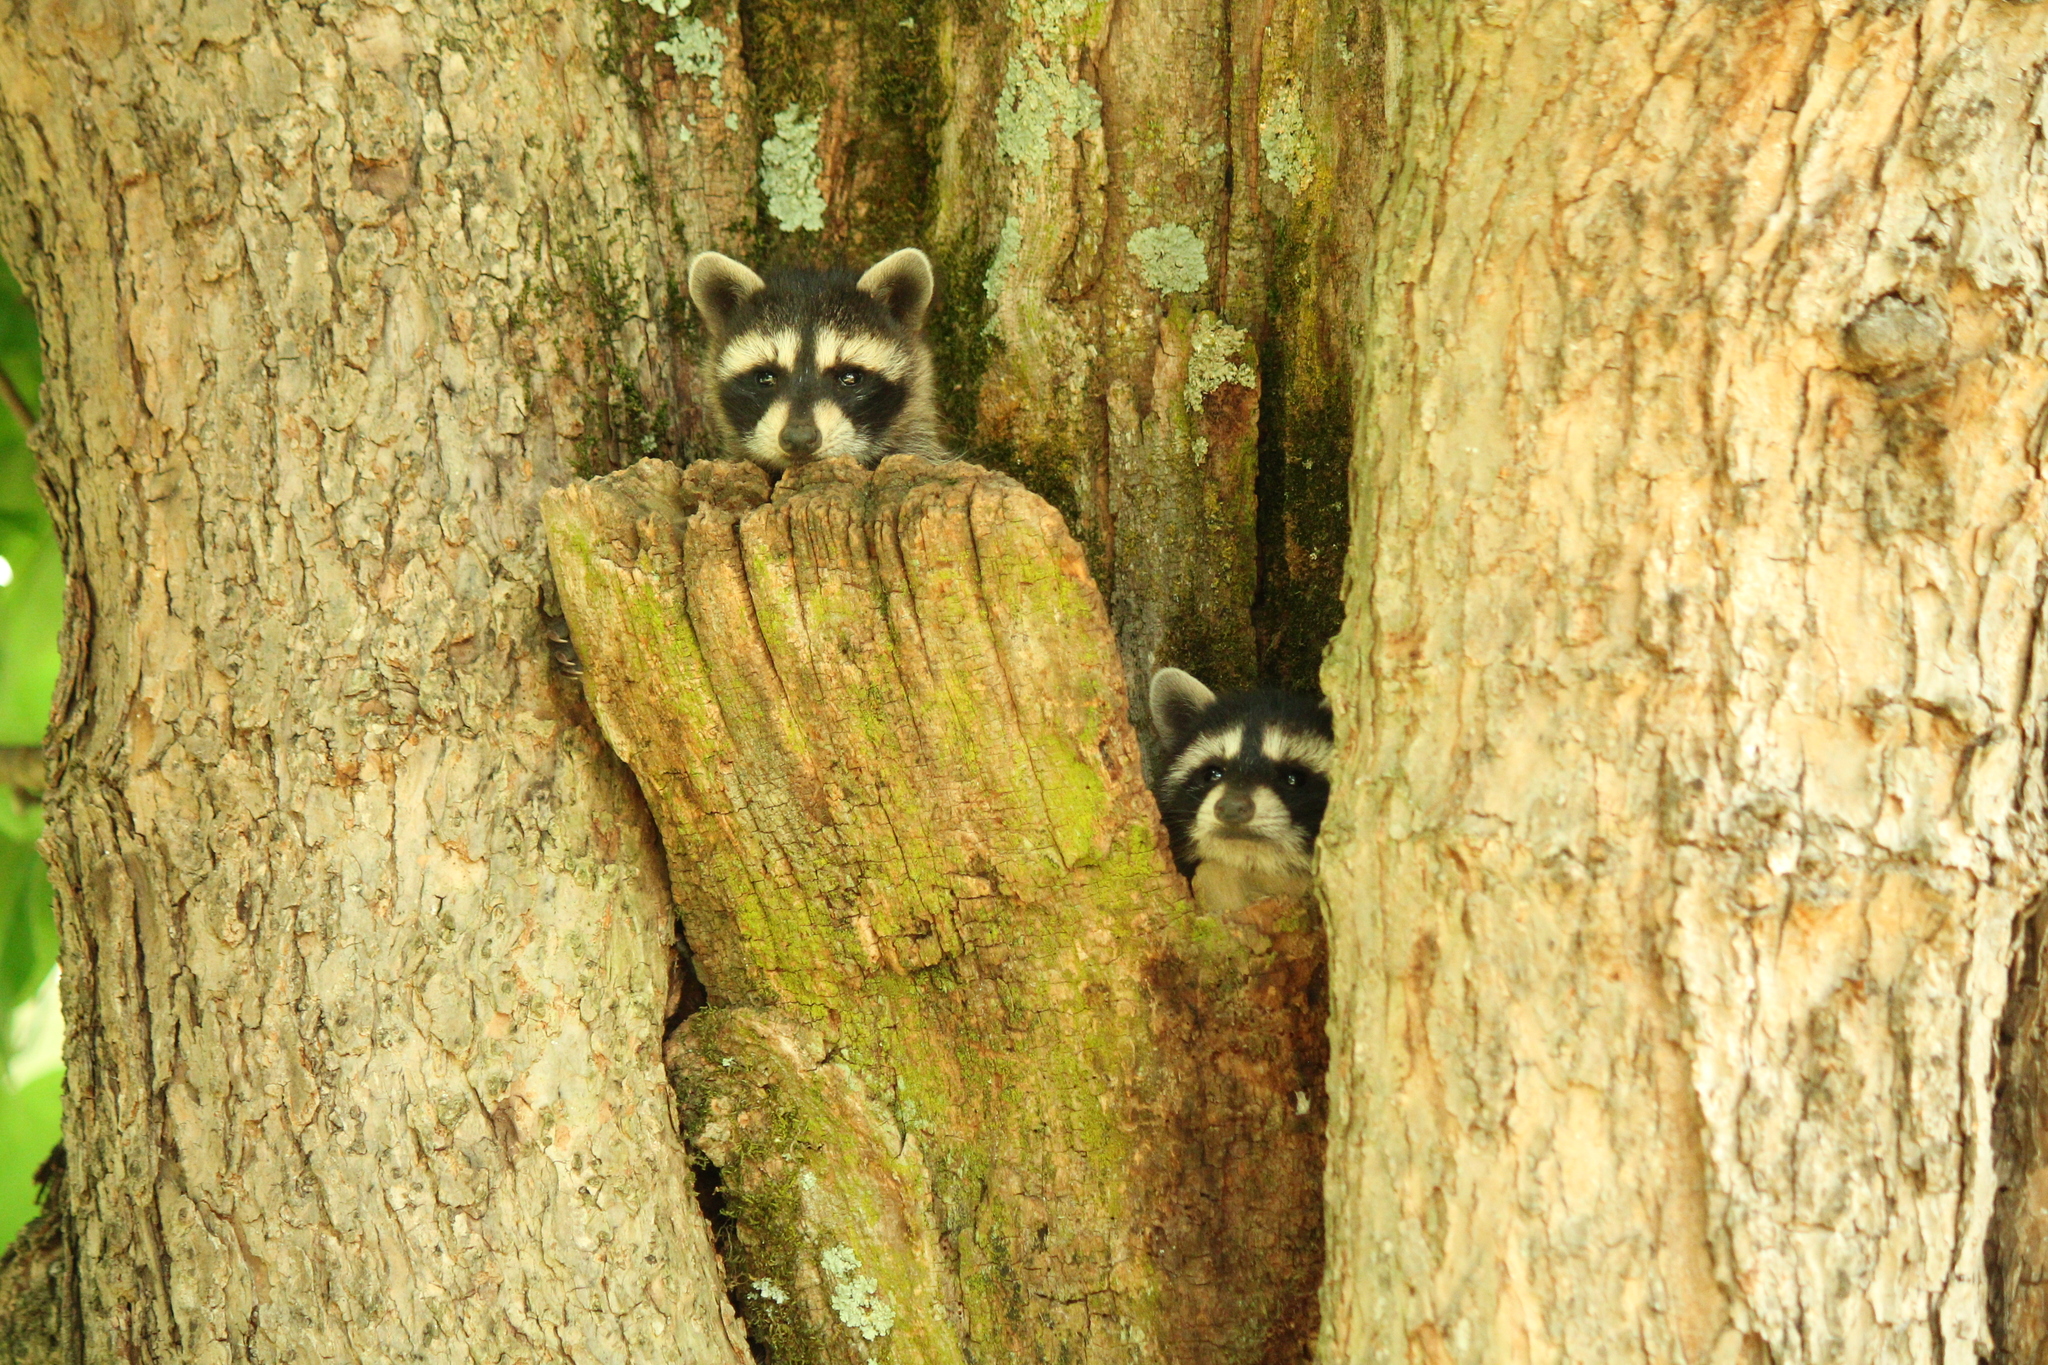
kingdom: Animalia
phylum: Chordata
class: Mammalia
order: Carnivora
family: Procyonidae
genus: Procyon
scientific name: Procyon lotor
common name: Raccoon
